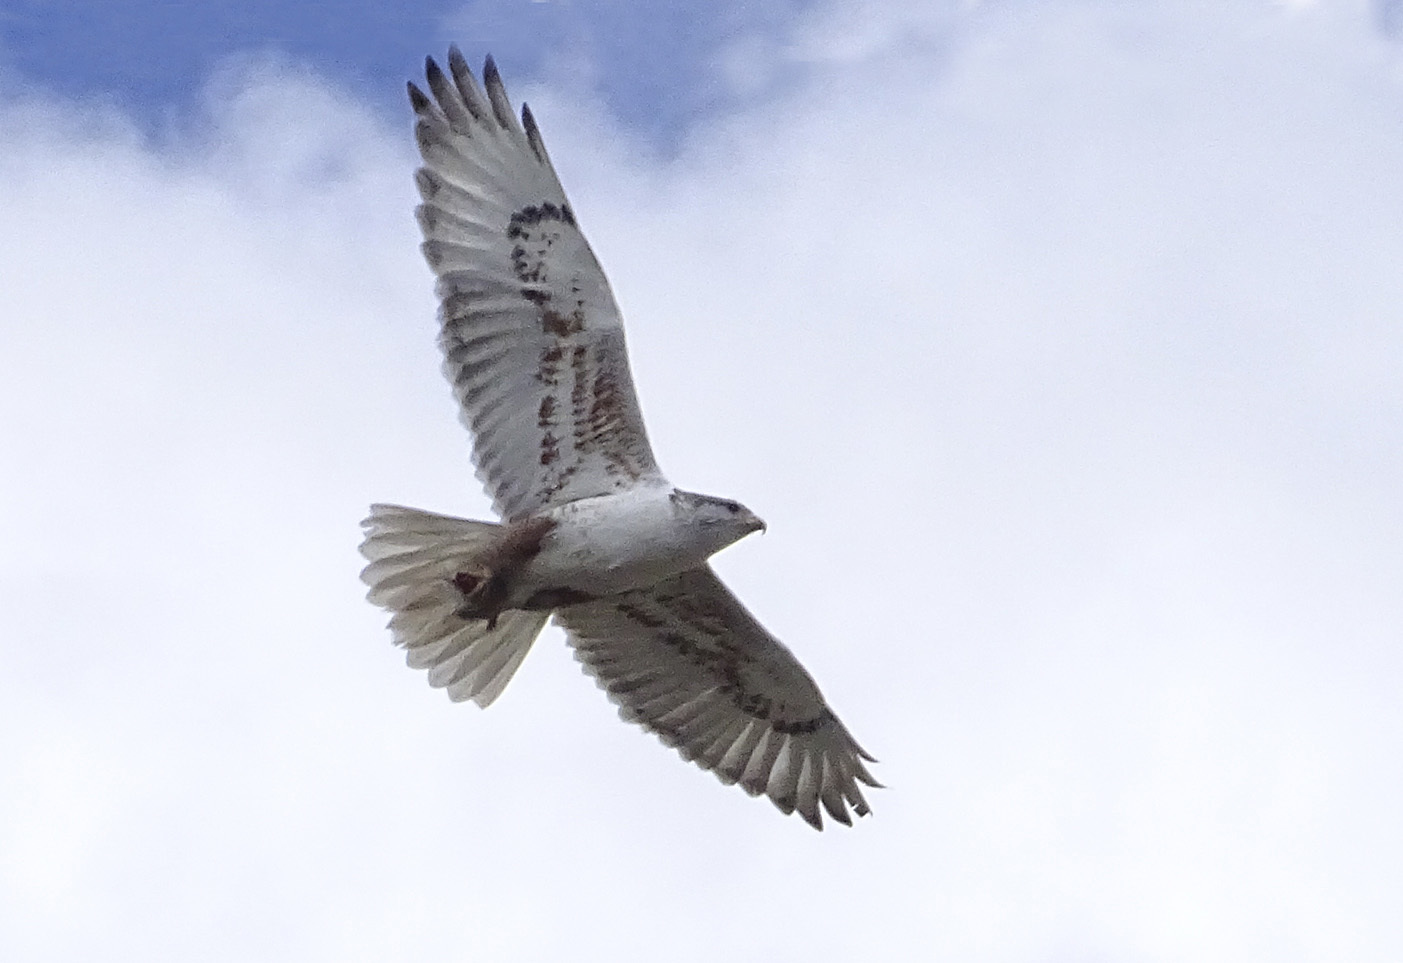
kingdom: Animalia
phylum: Chordata
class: Aves
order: Accipitriformes
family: Accipitridae
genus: Buteo
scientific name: Buteo regalis
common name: Ferruginous hawk
